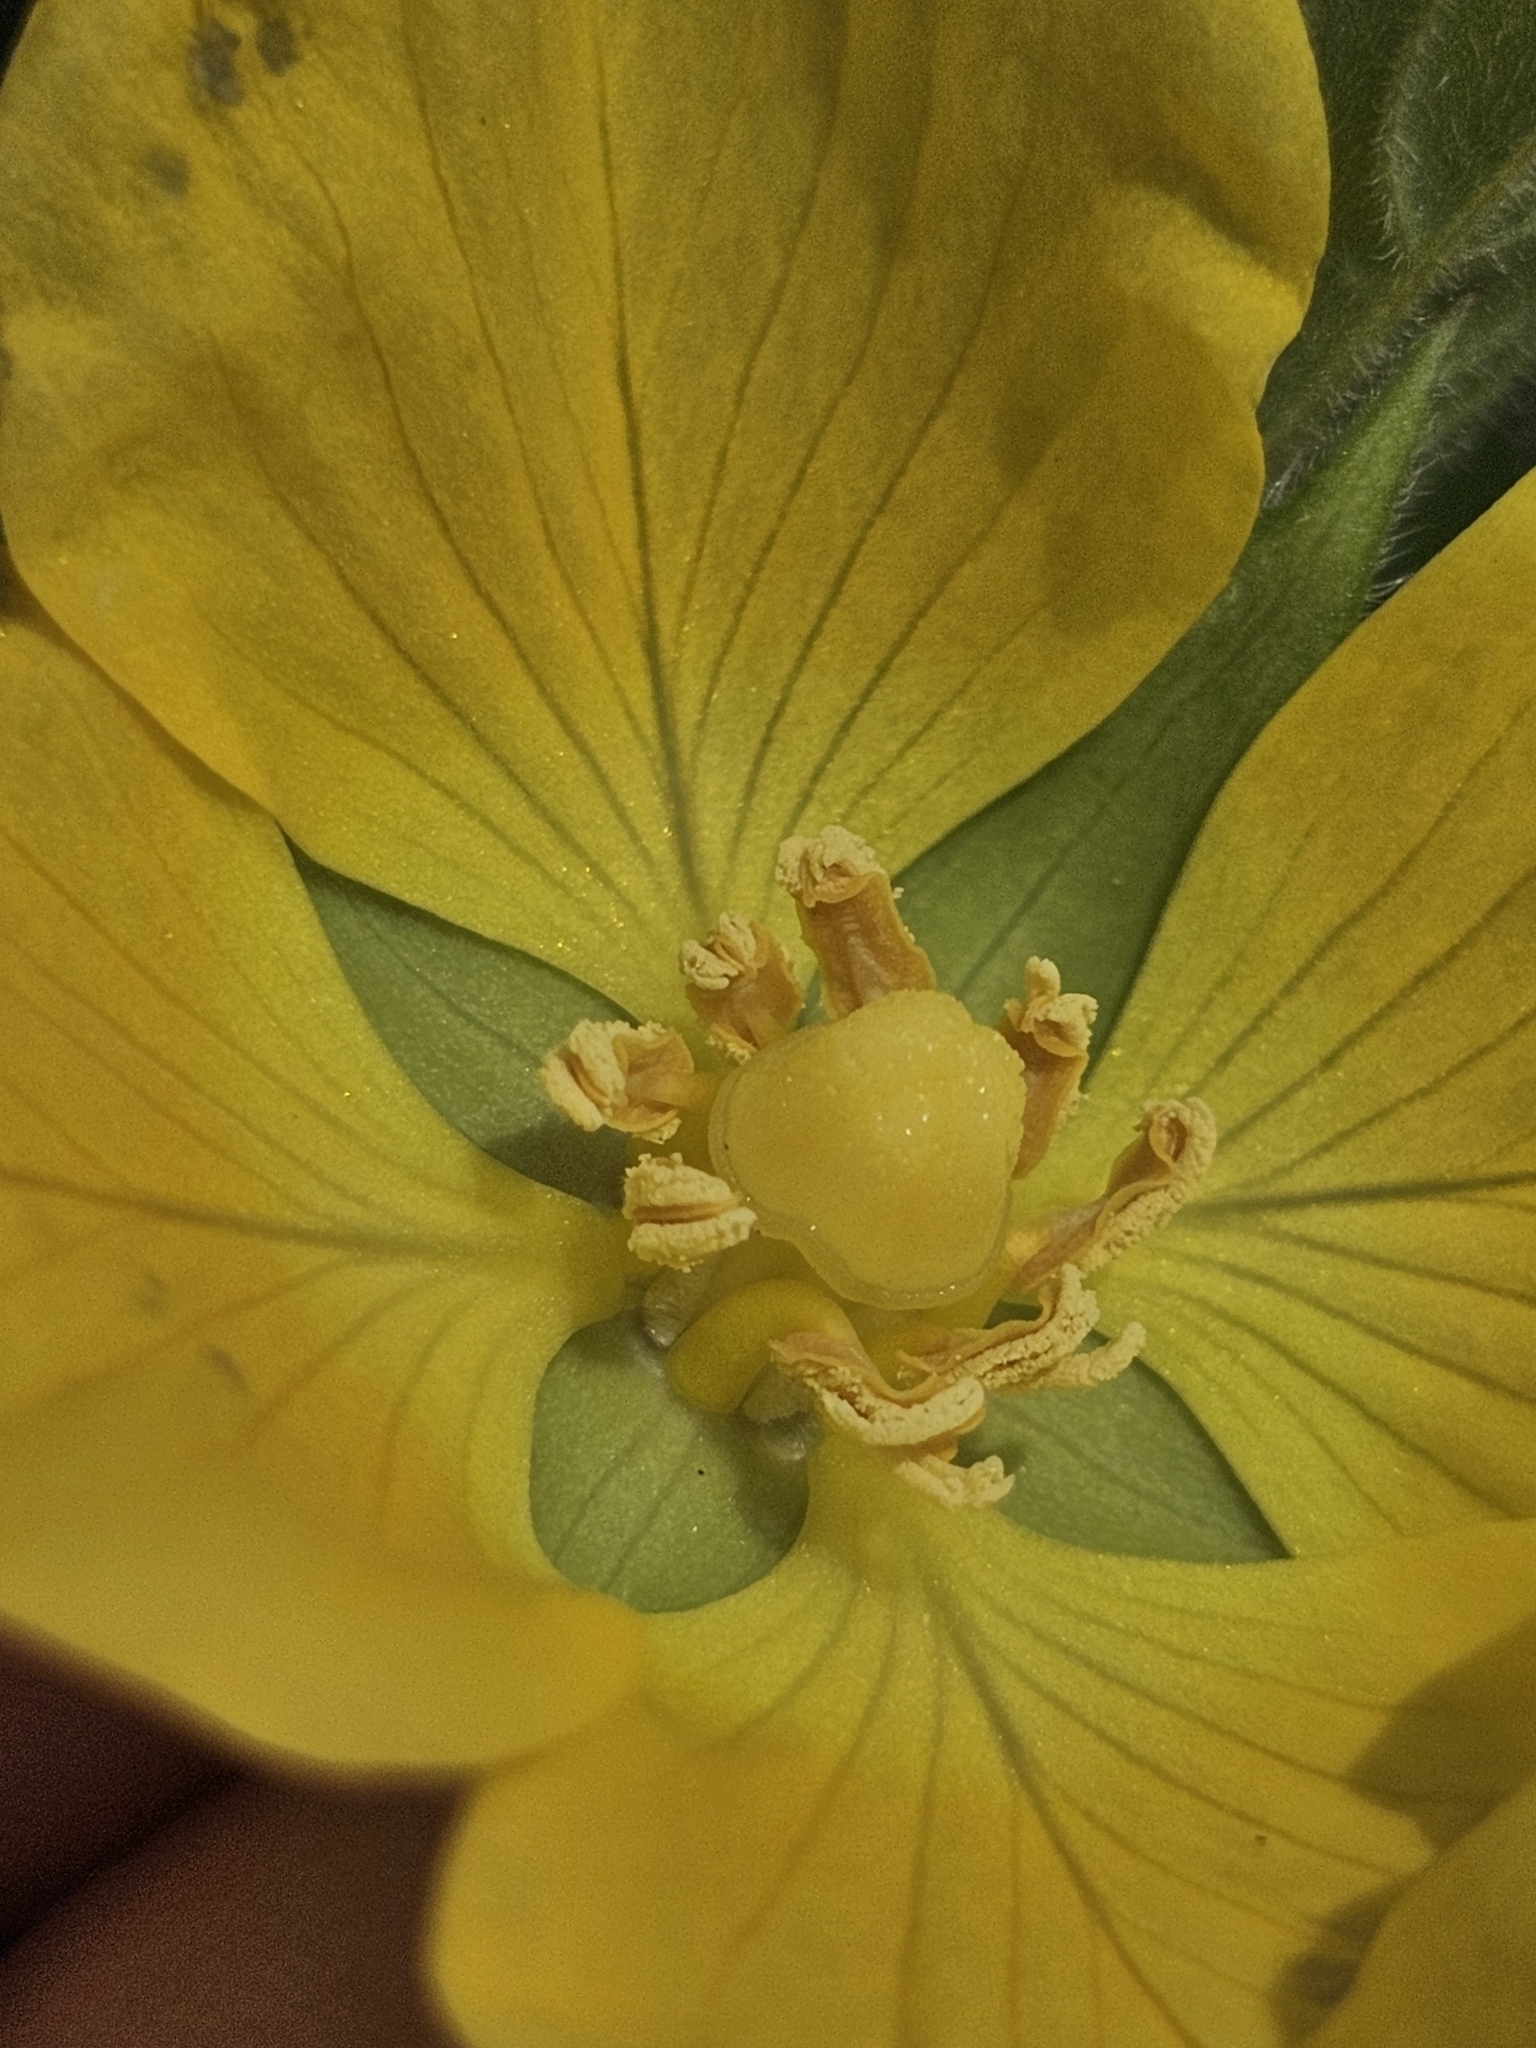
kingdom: Plantae
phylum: Tracheophyta
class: Magnoliopsida
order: Myrtales
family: Onagraceae
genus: Ludwigia
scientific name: Ludwigia peruviana
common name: Peruvian primrose-willow
